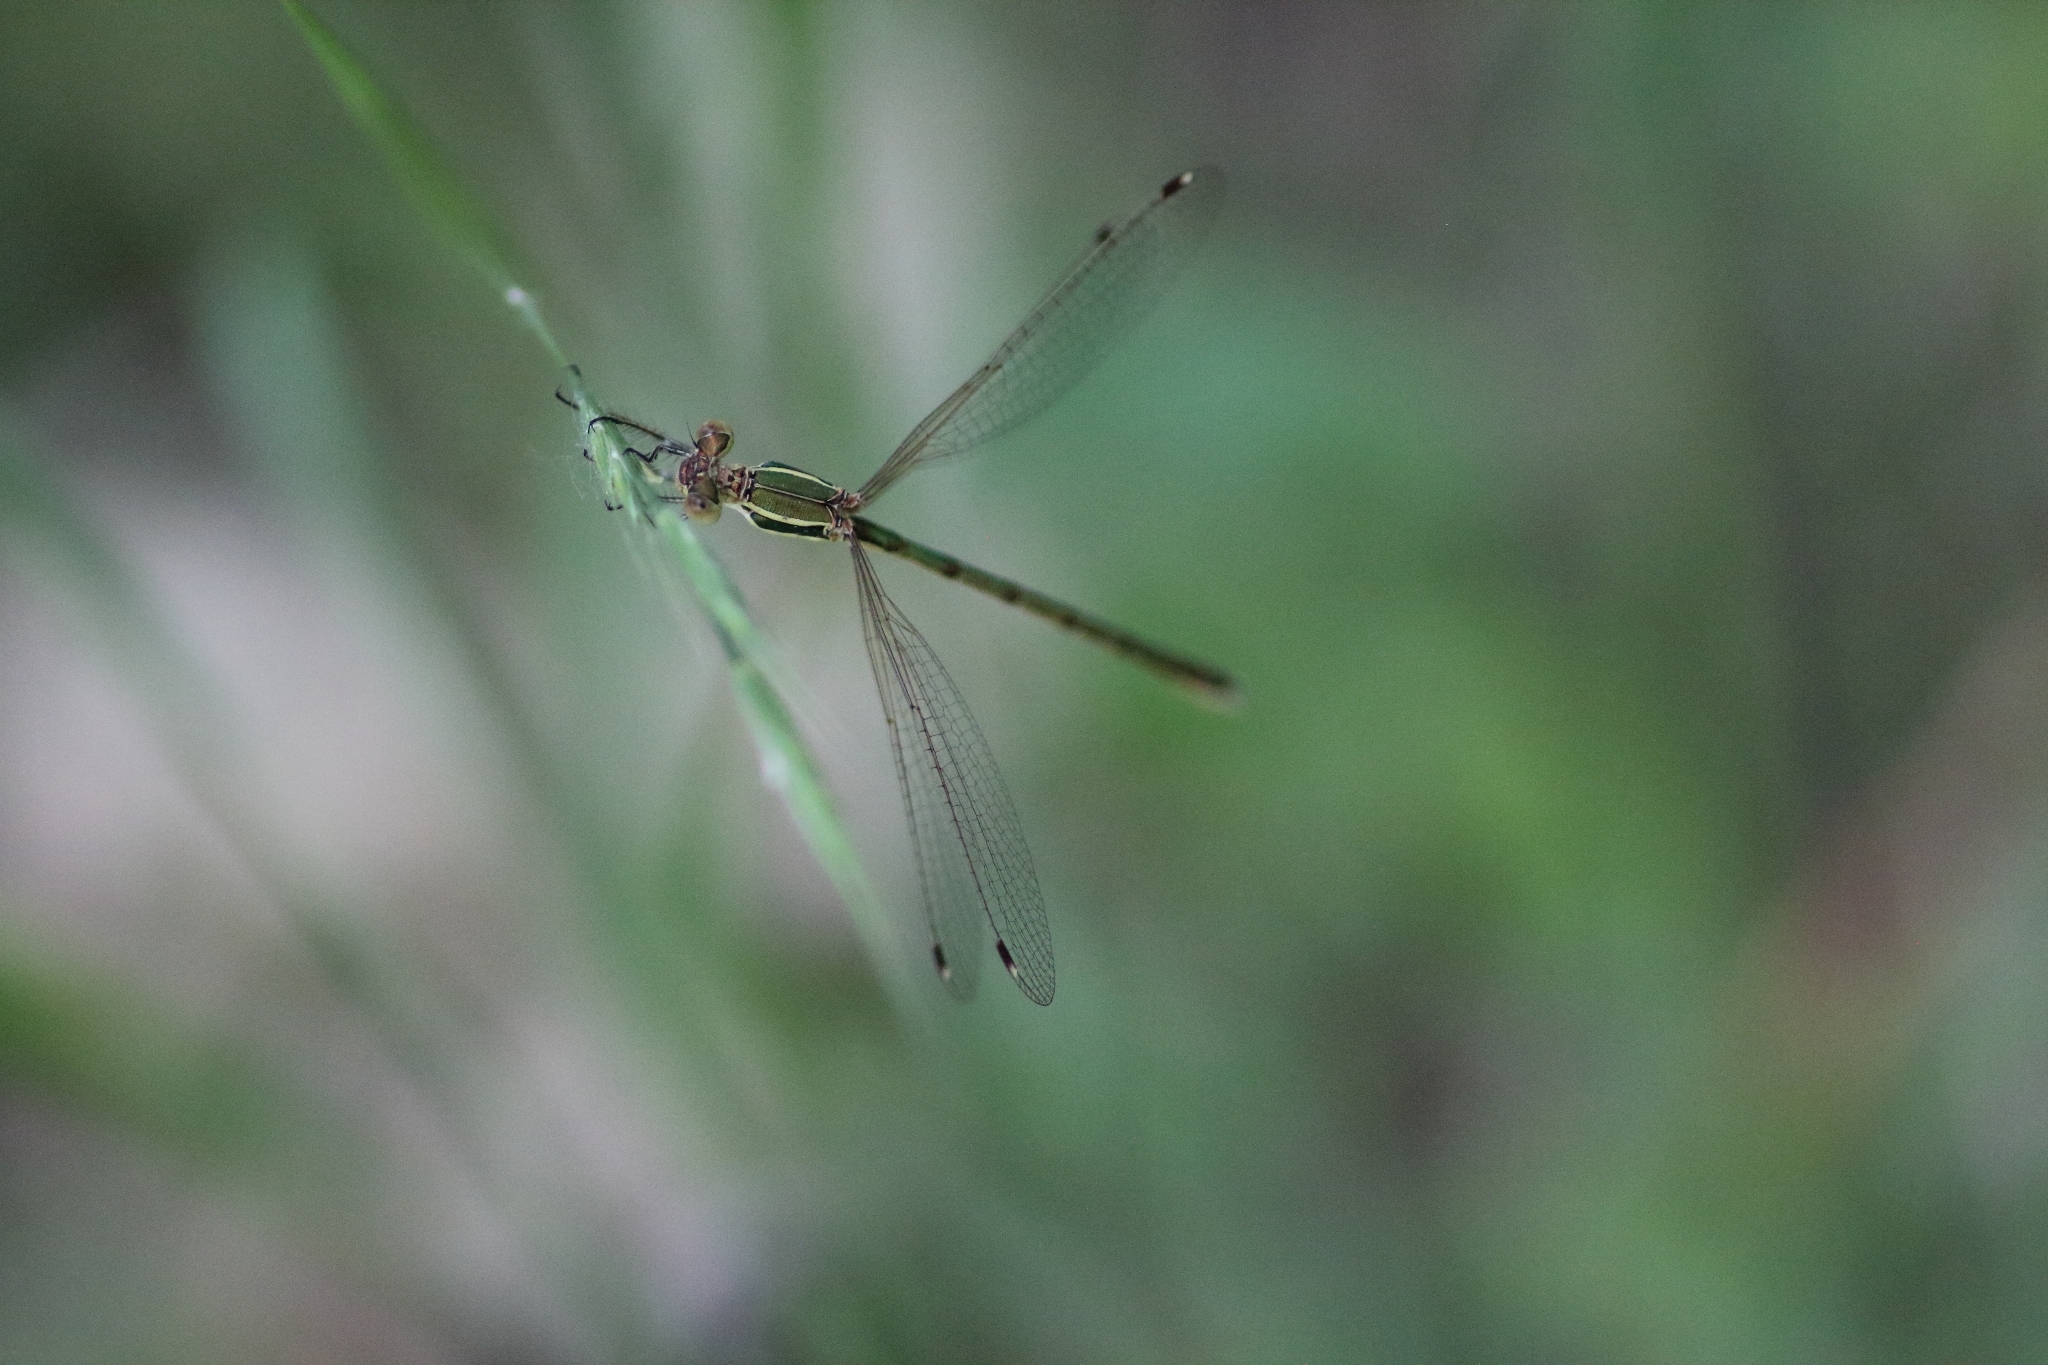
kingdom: Animalia
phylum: Arthropoda
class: Insecta
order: Odonata
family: Lestidae
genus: Lestes
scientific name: Lestes barbarus
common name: Migrant spreadwing
